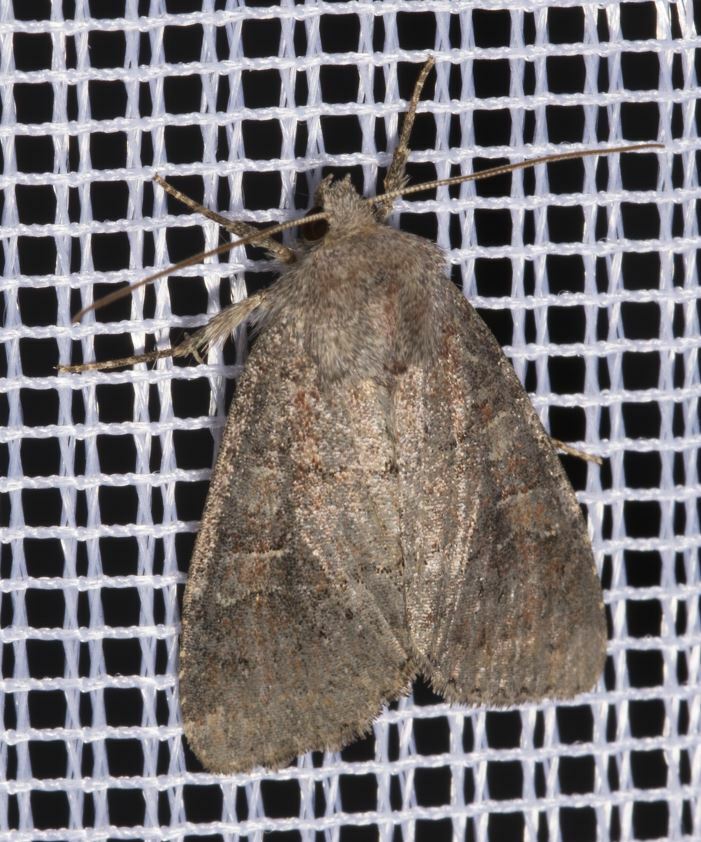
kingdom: Animalia
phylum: Arthropoda
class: Insecta
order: Lepidoptera
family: Noctuidae
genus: Parastichtis
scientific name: Parastichtis suspecta
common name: Suspected
